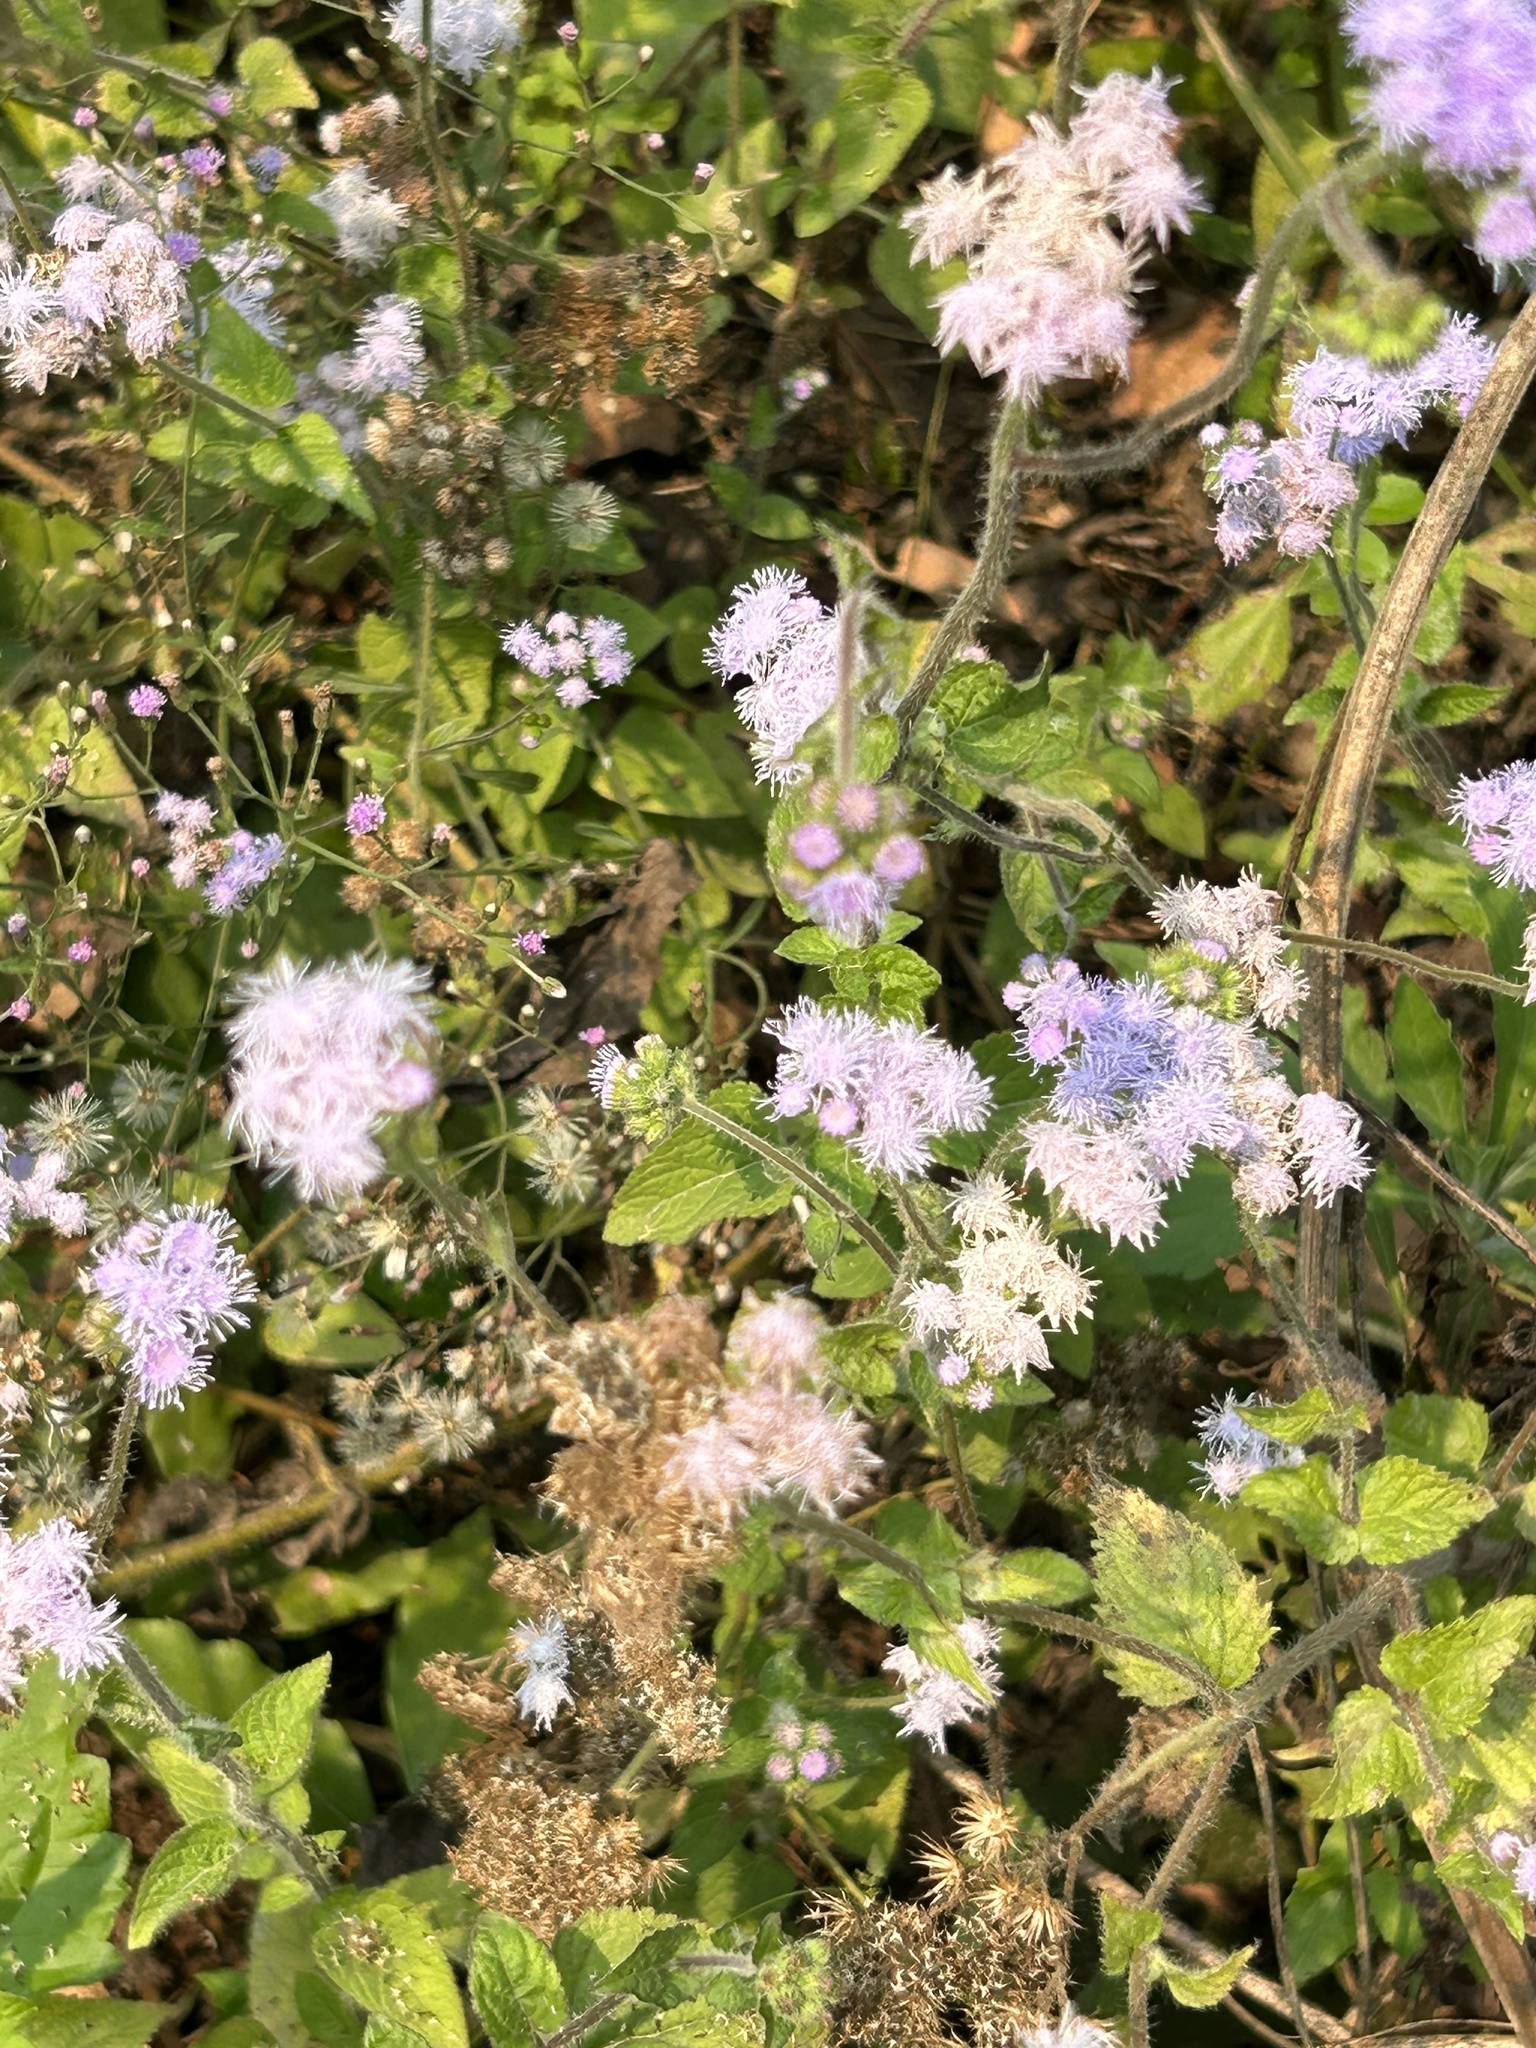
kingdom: Plantae
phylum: Tracheophyta
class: Magnoliopsida
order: Asterales
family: Asteraceae
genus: Ageratum
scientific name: Ageratum houstonianum
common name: Bluemink
